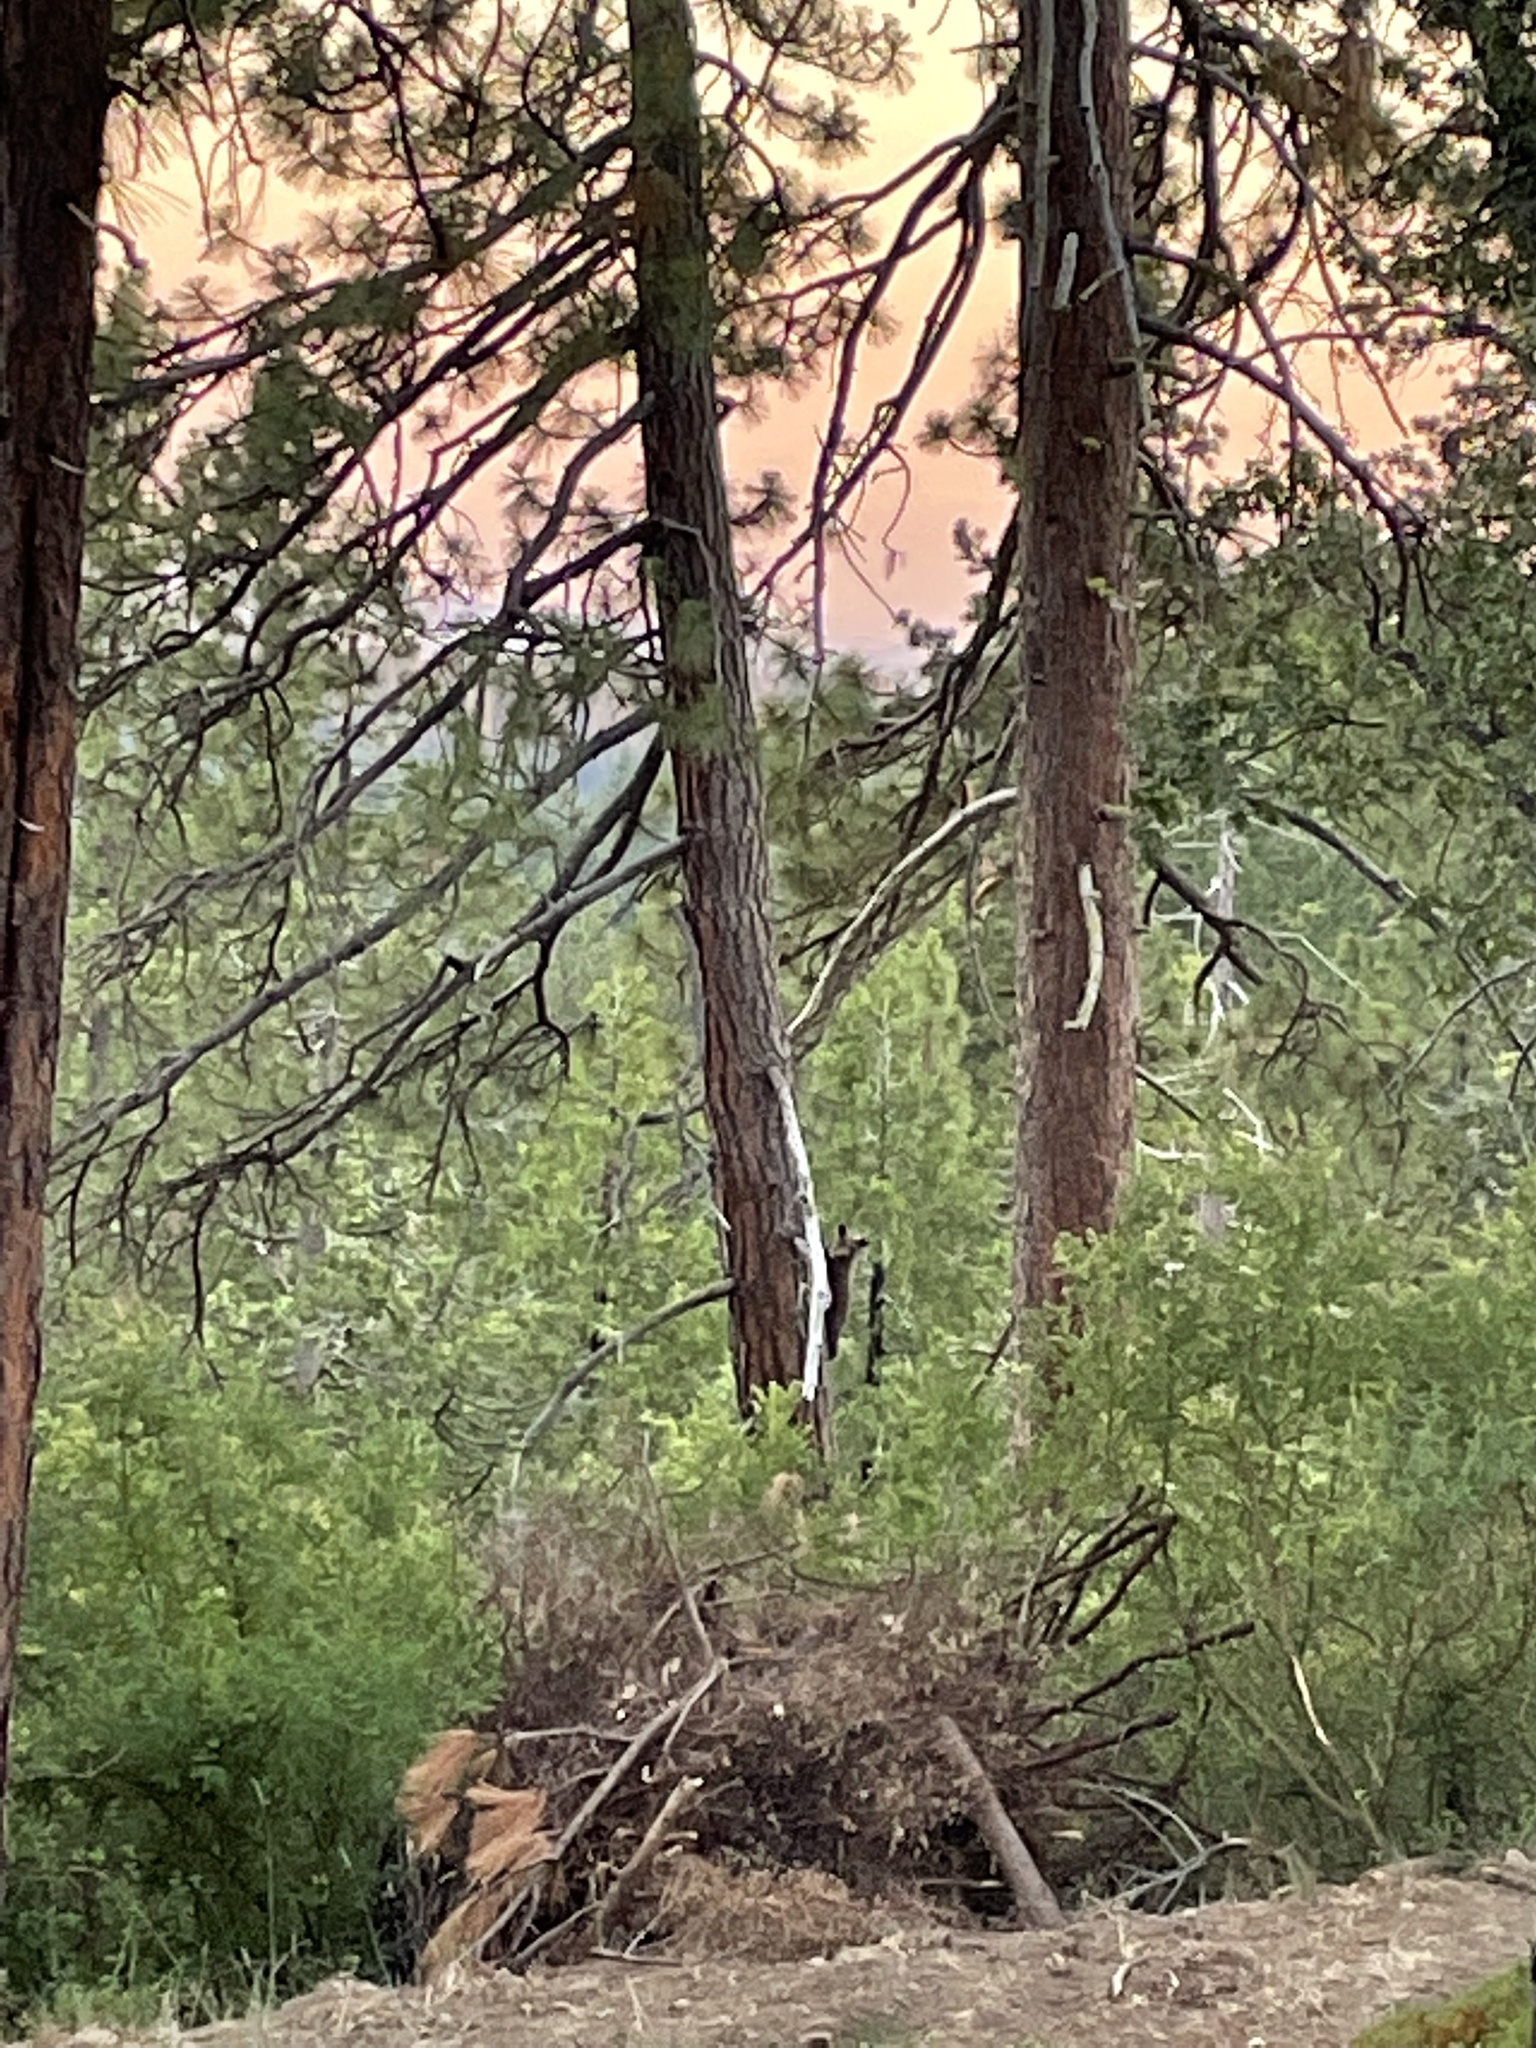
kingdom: Animalia
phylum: Chordata
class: Mammalia
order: Carnivora
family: Ursidae
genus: Ursus
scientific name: Ursus americanus
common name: American black bear
